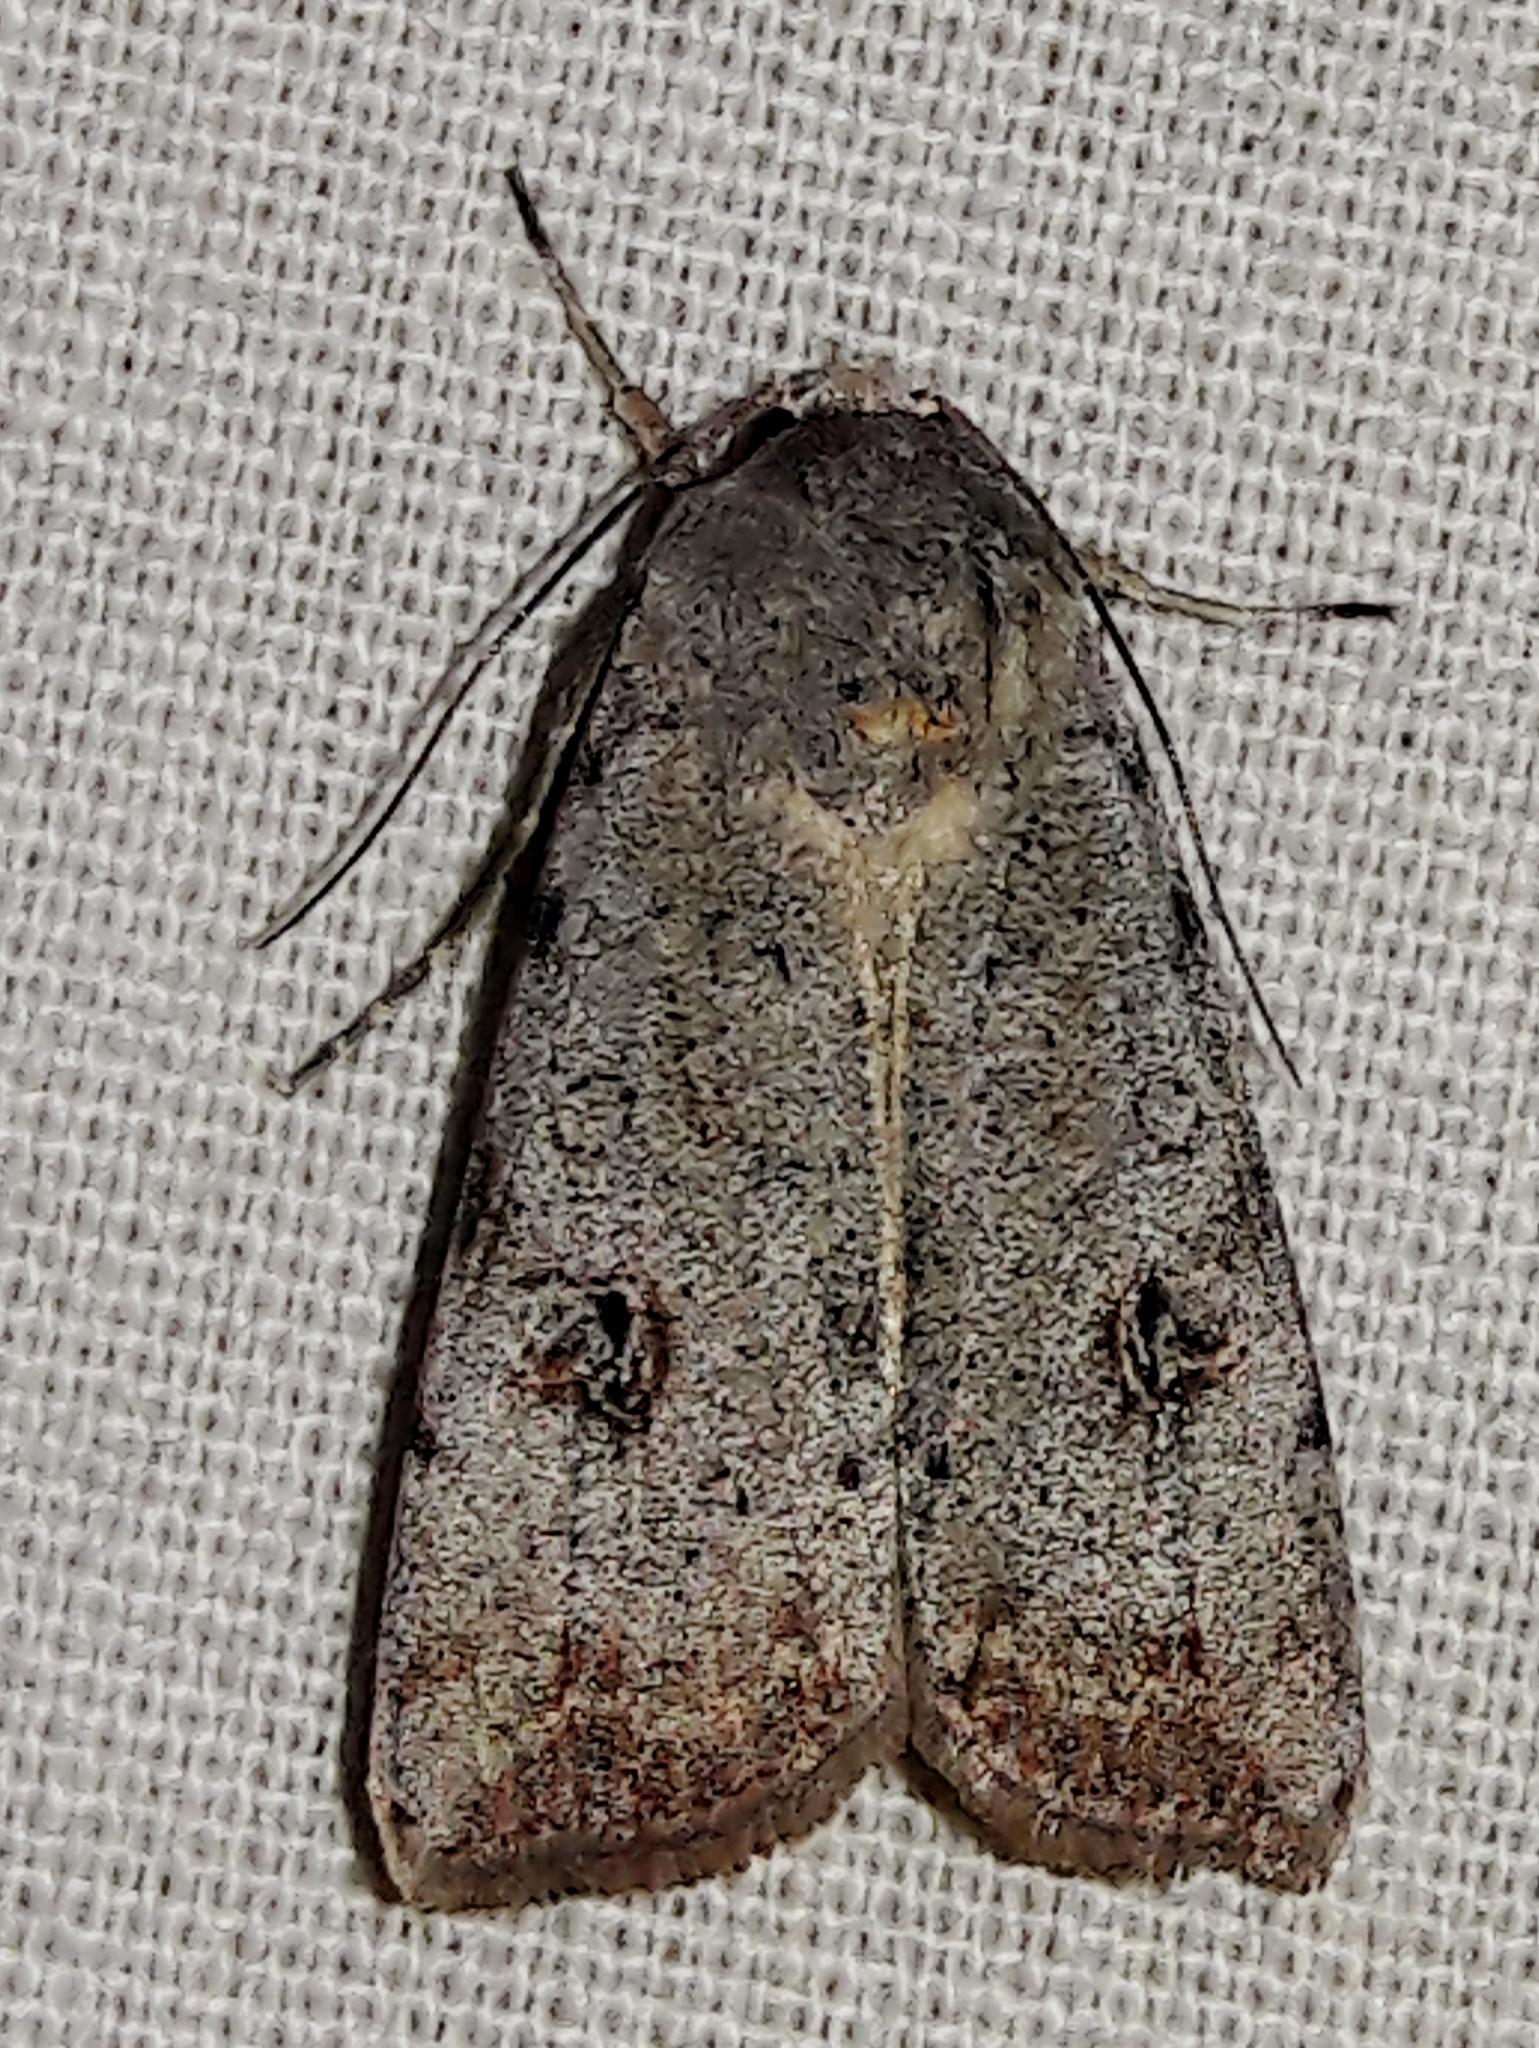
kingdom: Animalia
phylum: Arthropoda
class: Insecta
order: Lepidoptera
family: Noctuidae
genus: Anicla
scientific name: Anicla infecta
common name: Green cutworm
